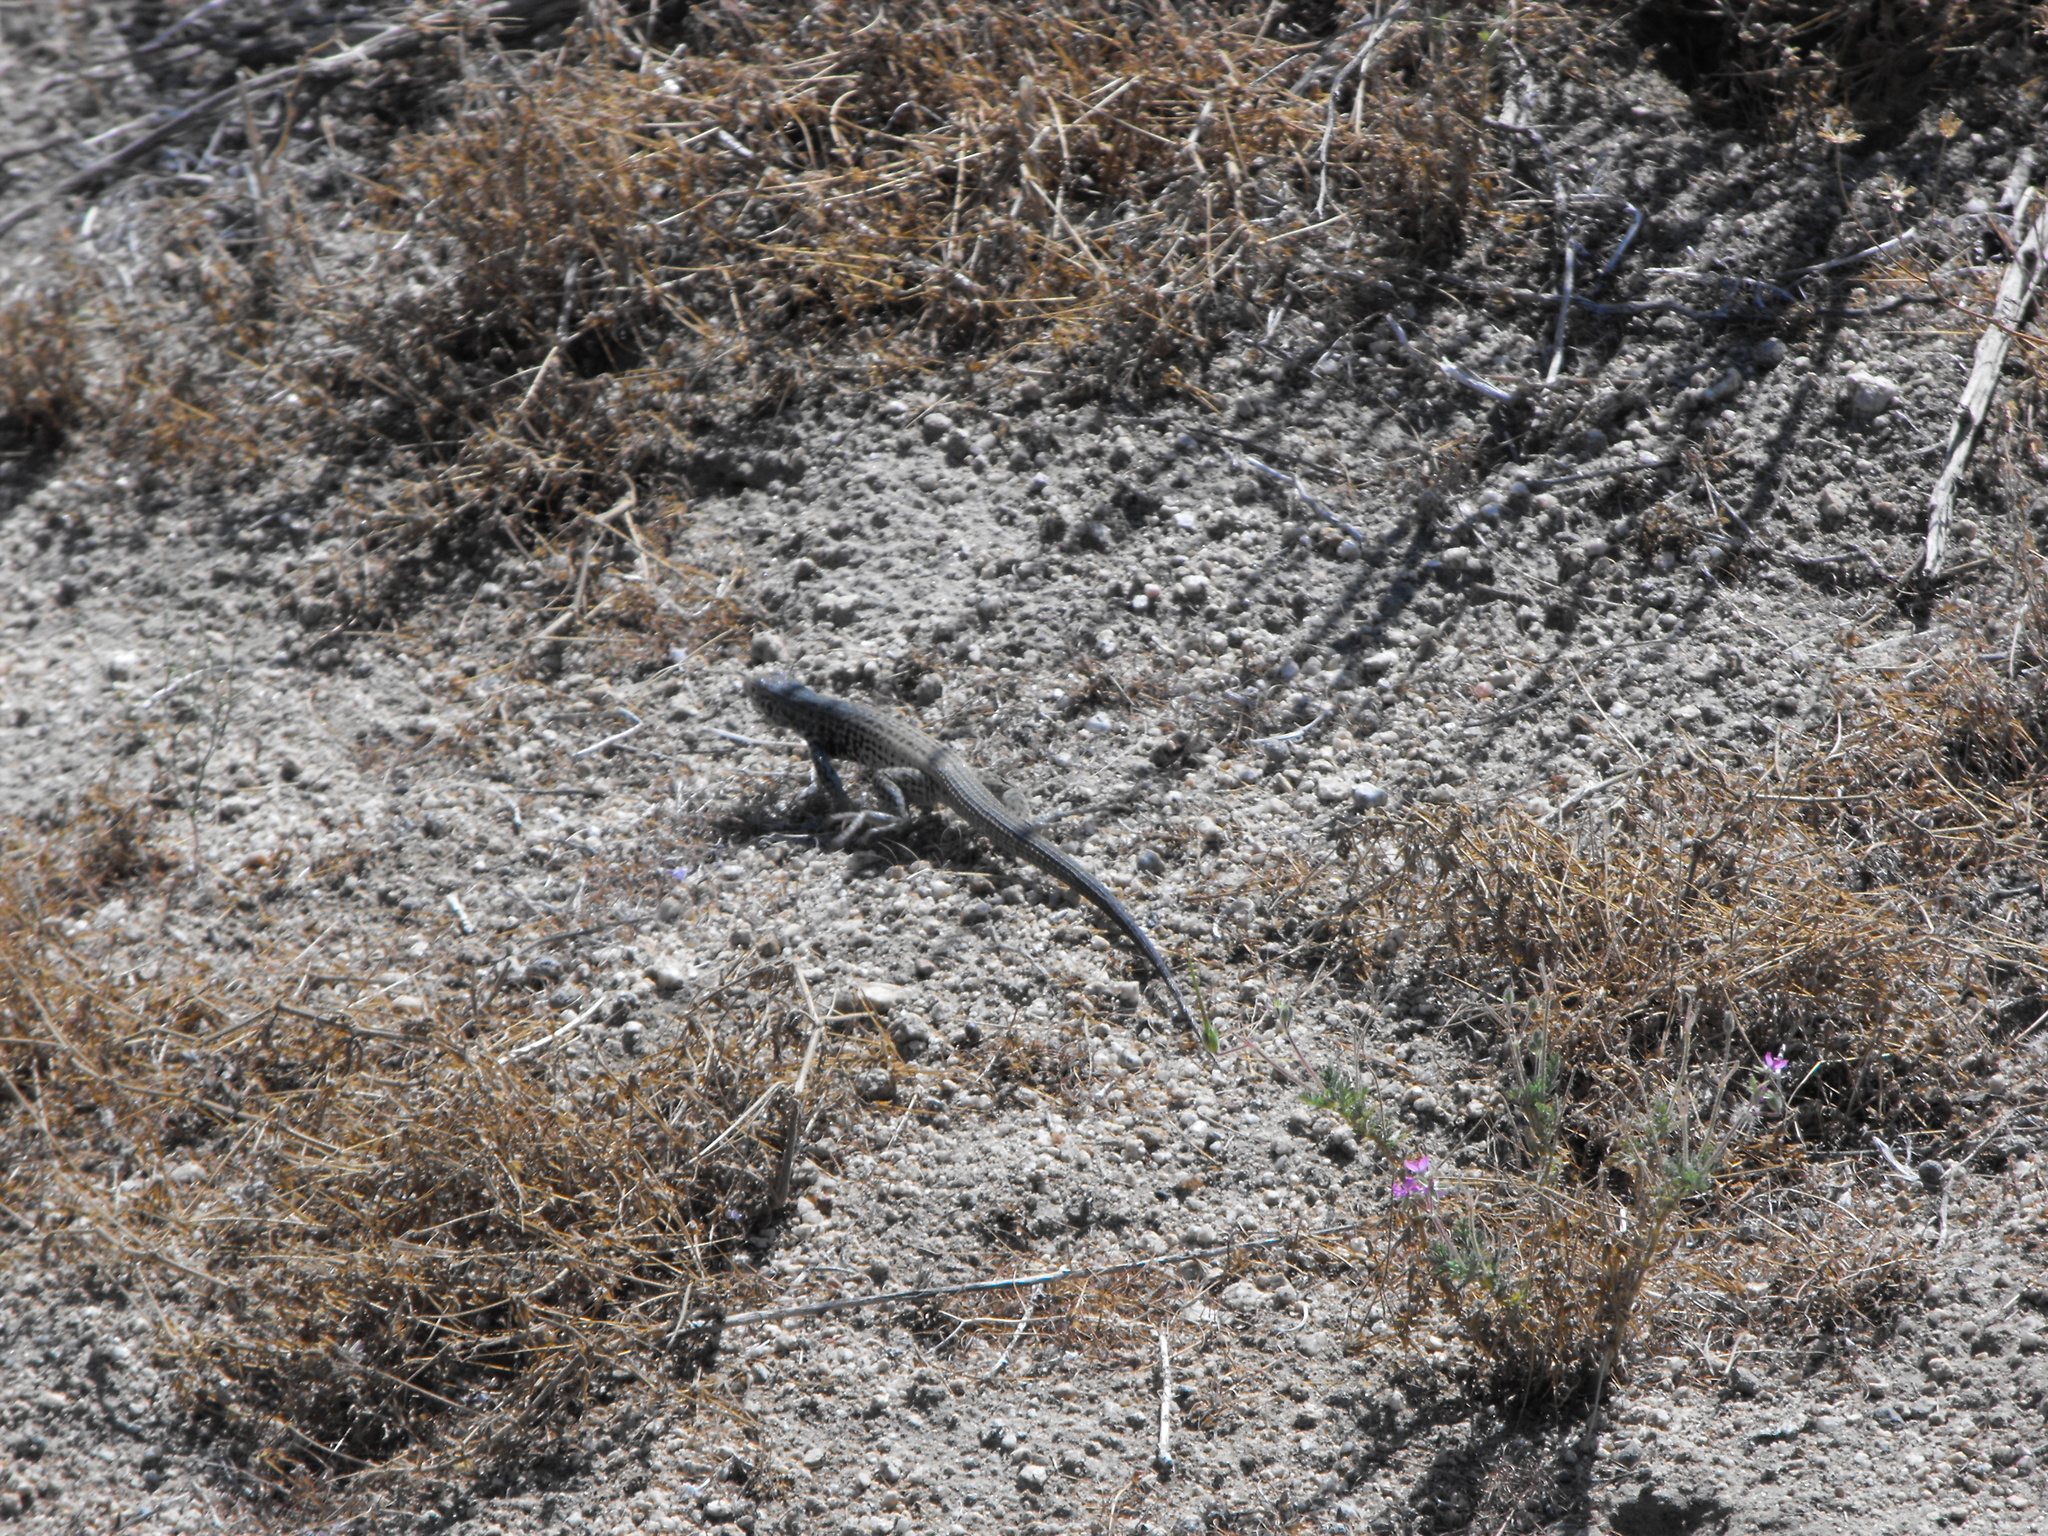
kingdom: Animalia
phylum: Chordata
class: Squamata
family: Teiidae
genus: Aspidoscelis
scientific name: Aspidoscelis tigris
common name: Tiger whiptail
